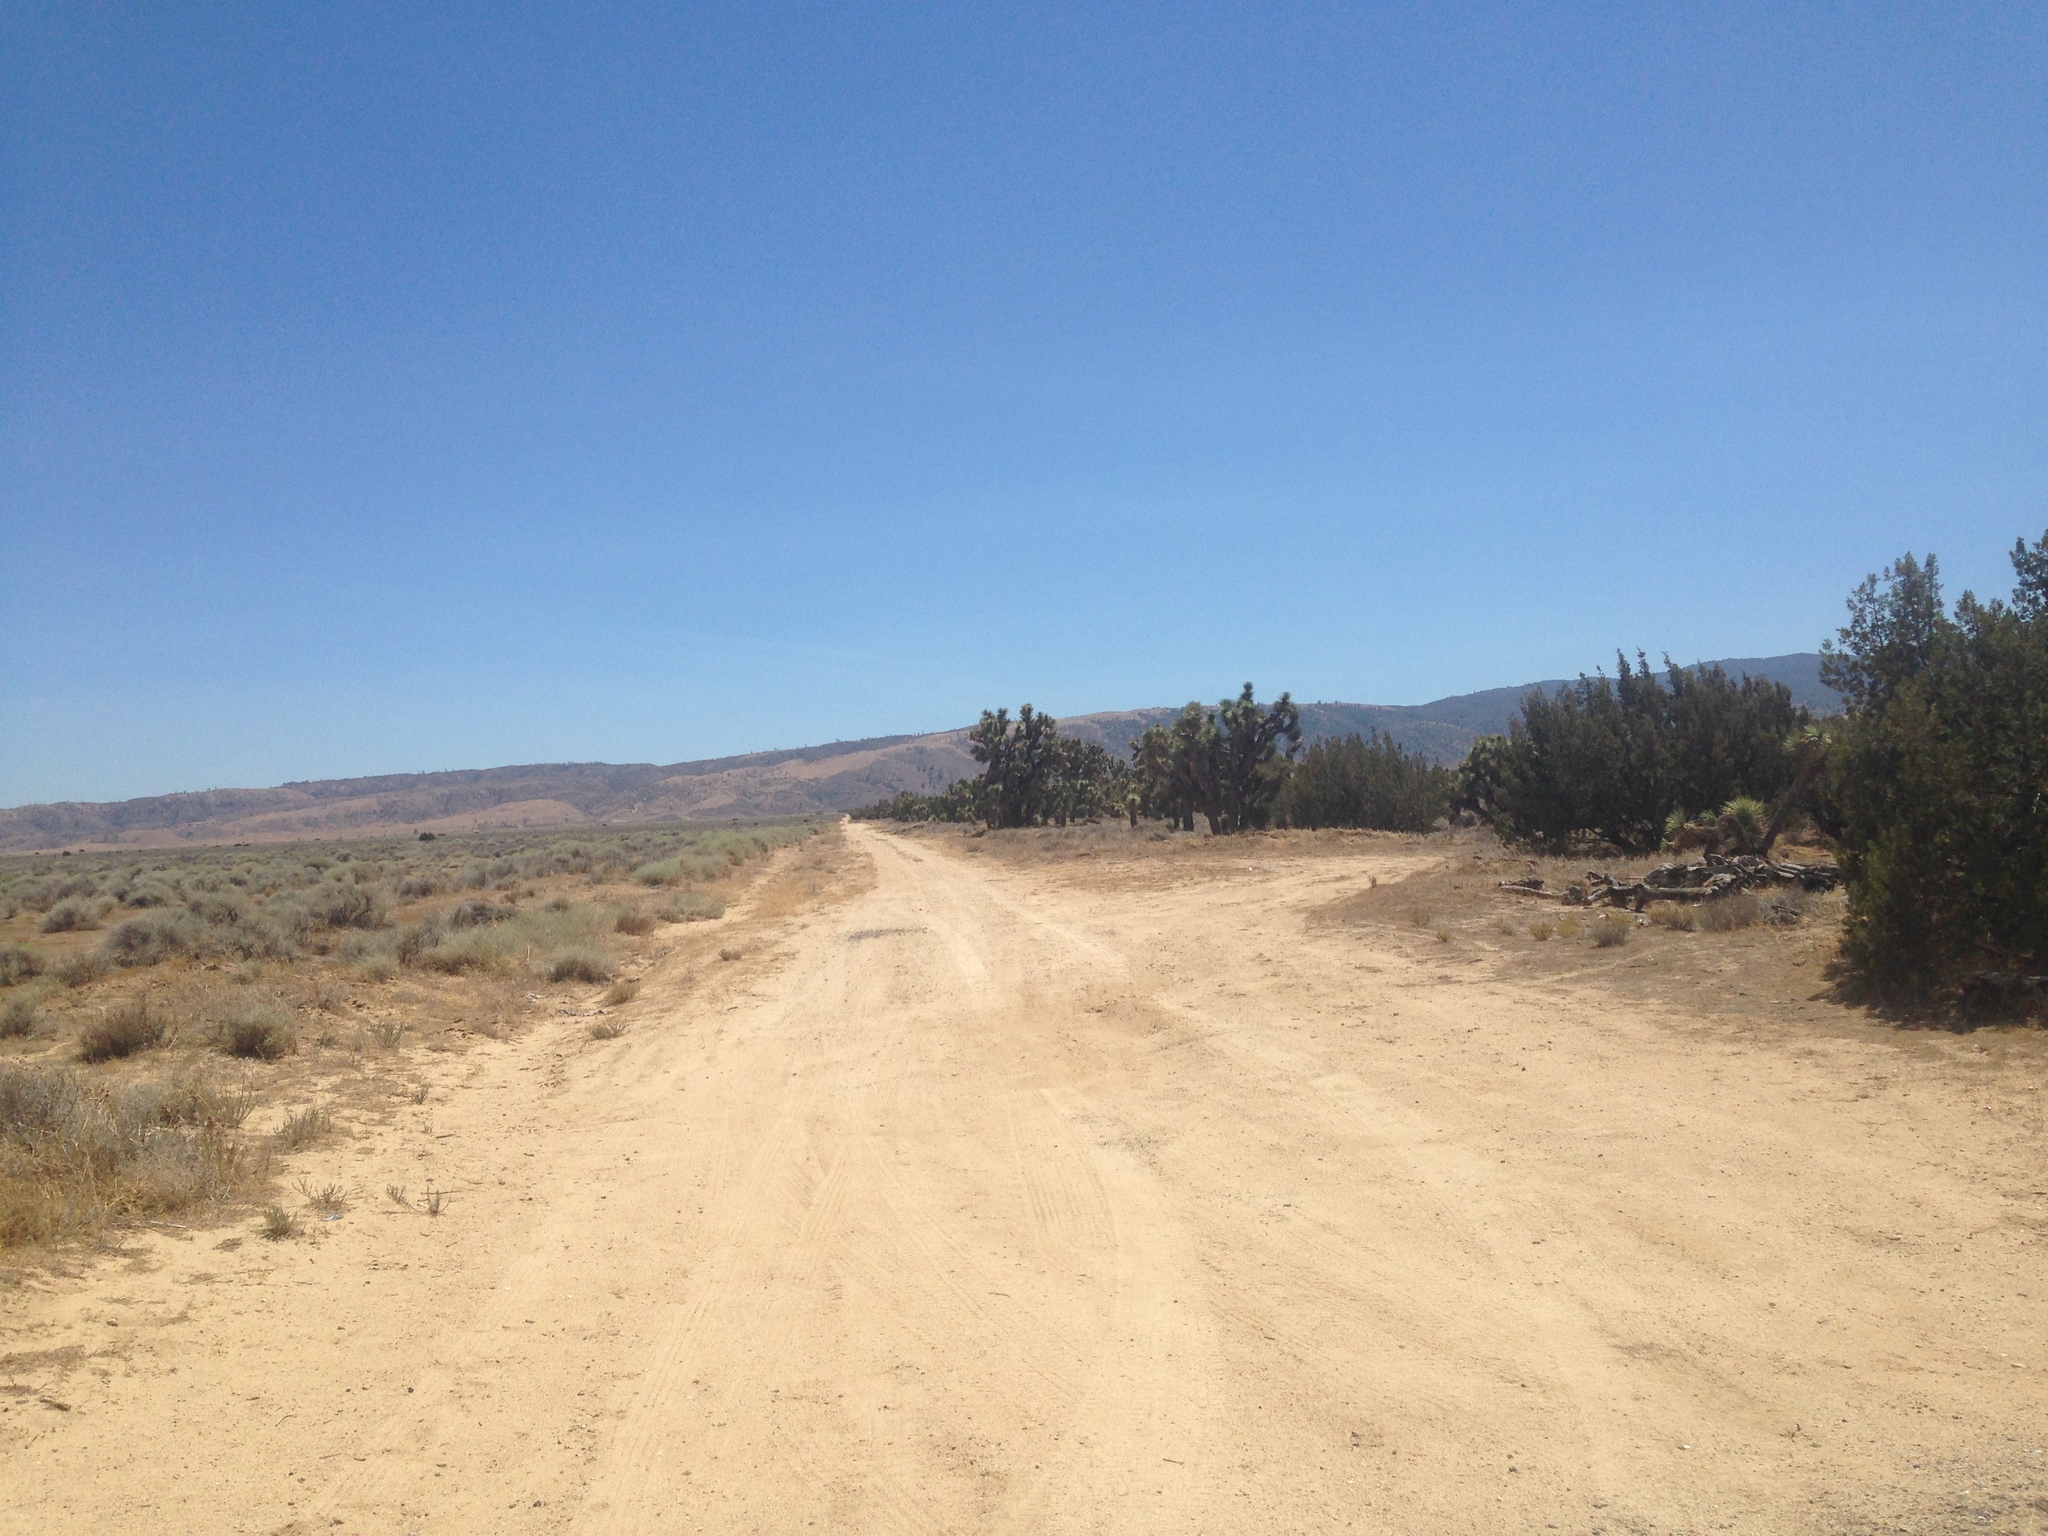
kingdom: Plantae
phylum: Tracheophyta
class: Liliopsida
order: Asparagales
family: Asparagaceae
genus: Yucca
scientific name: Yucca brevifolia
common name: Joshua tree
